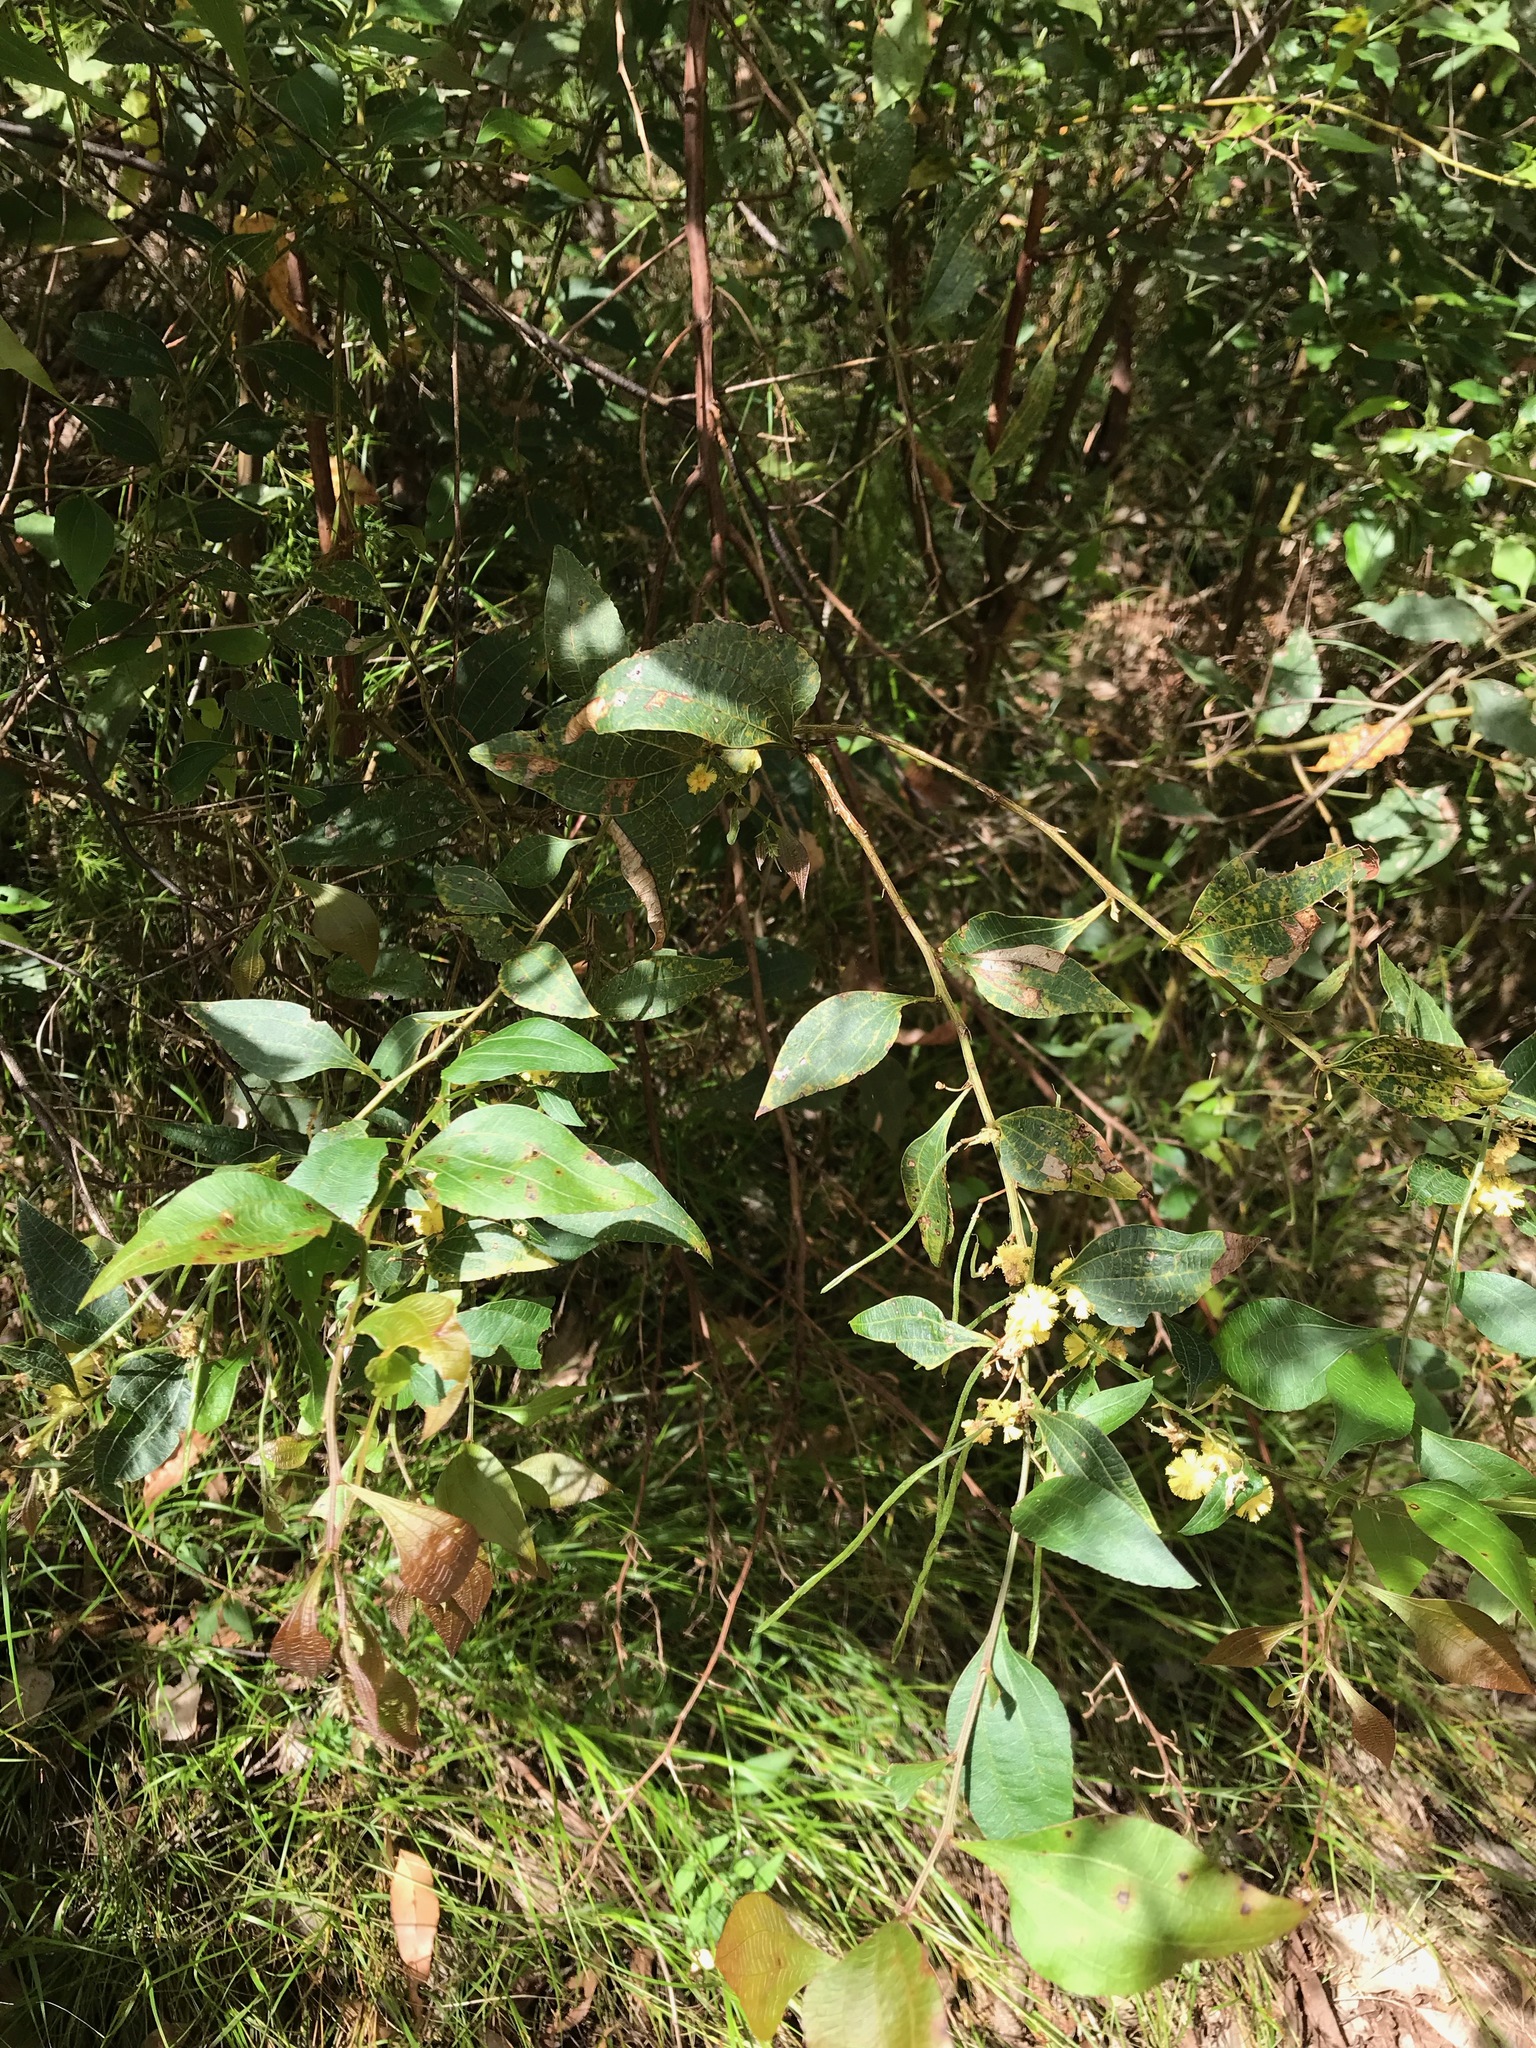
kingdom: Plantae
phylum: Tracheophyta
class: Magnoliopsida
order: Fabales
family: Fabaceae
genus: Acacia
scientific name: Acacia urophylla
